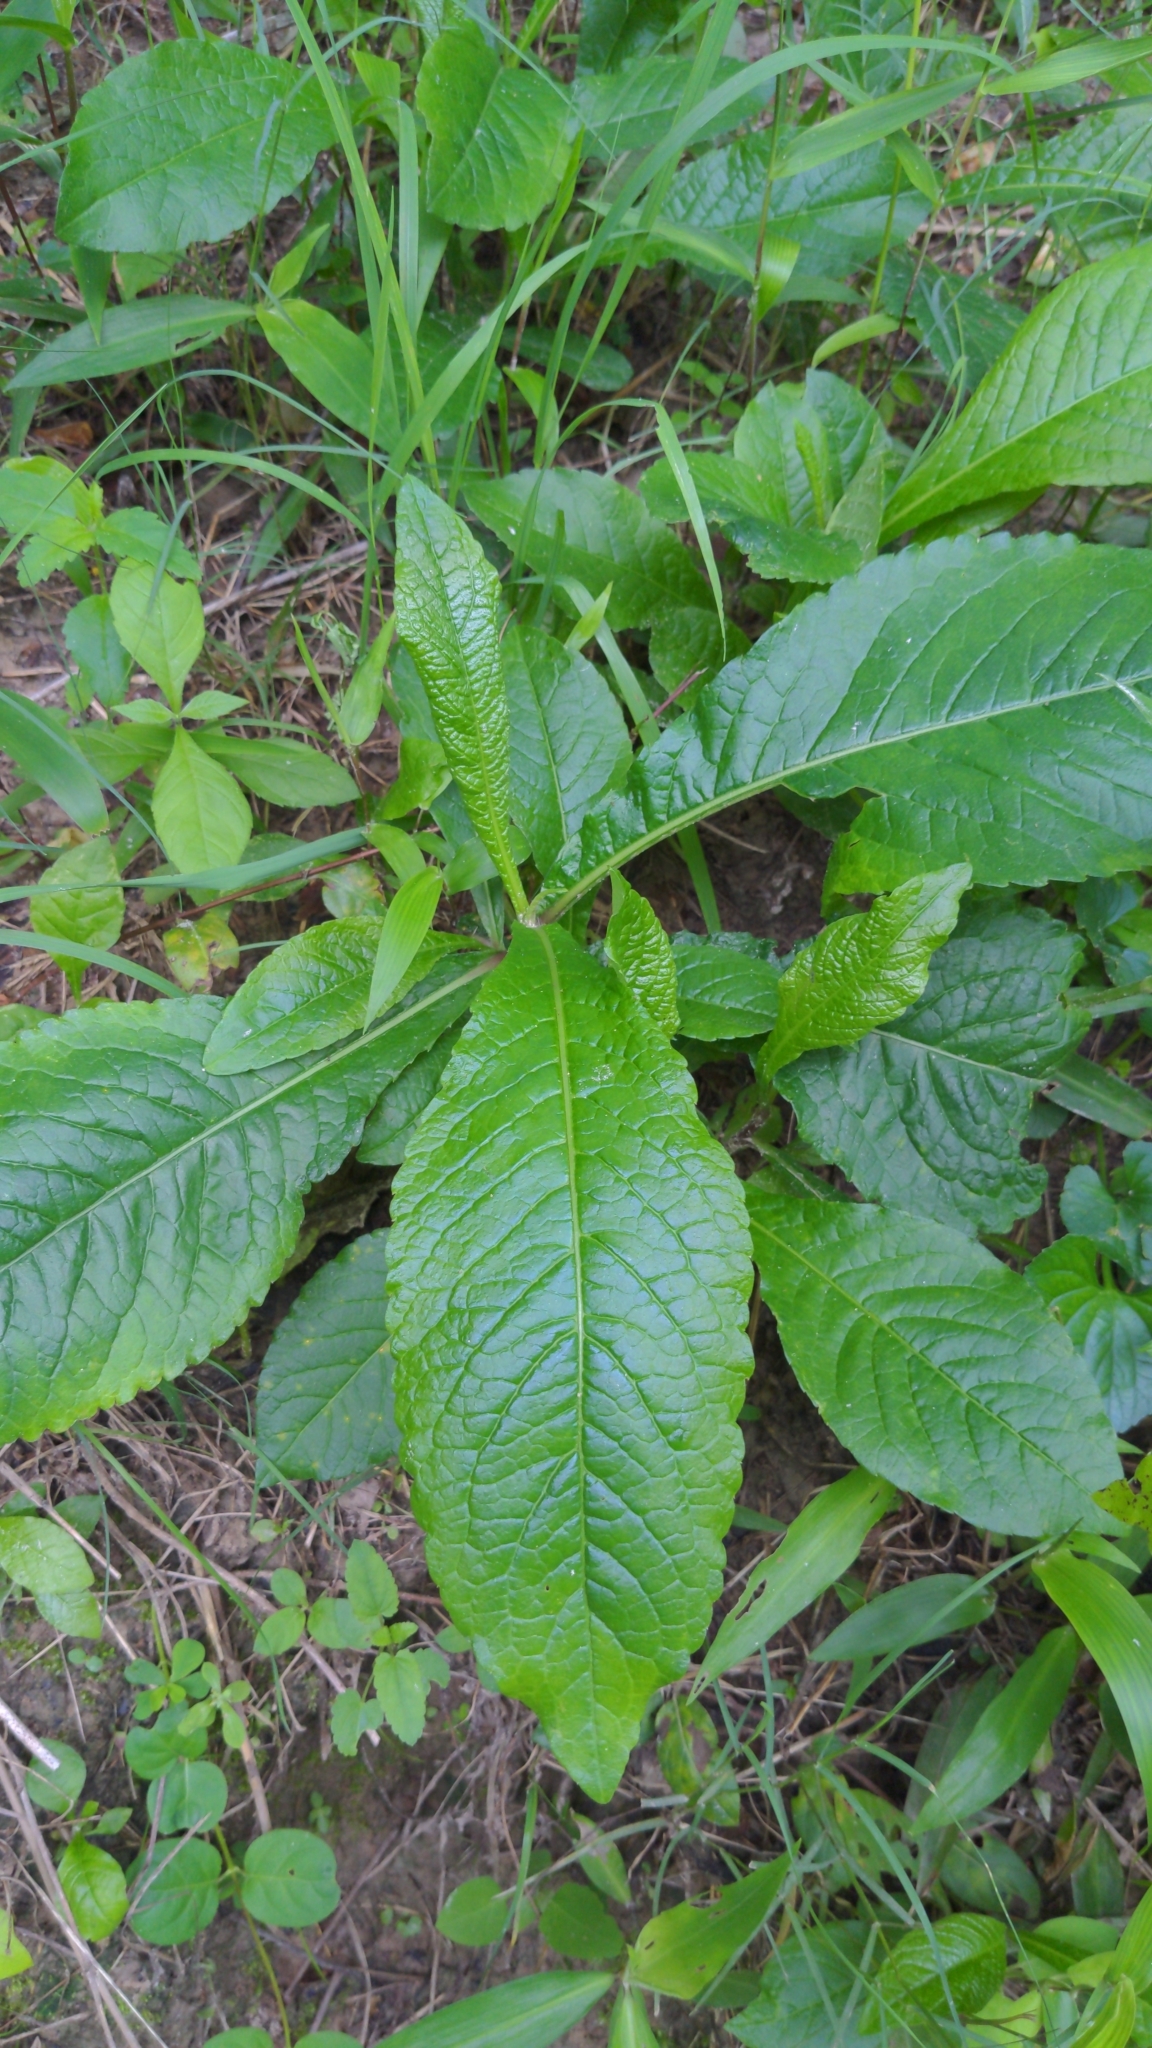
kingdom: Plantae
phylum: Tracheophyta
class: Magnoliopsida
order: Asterales
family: Asteraceae
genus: Elephantopus
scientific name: Elephantopus carolinianus
